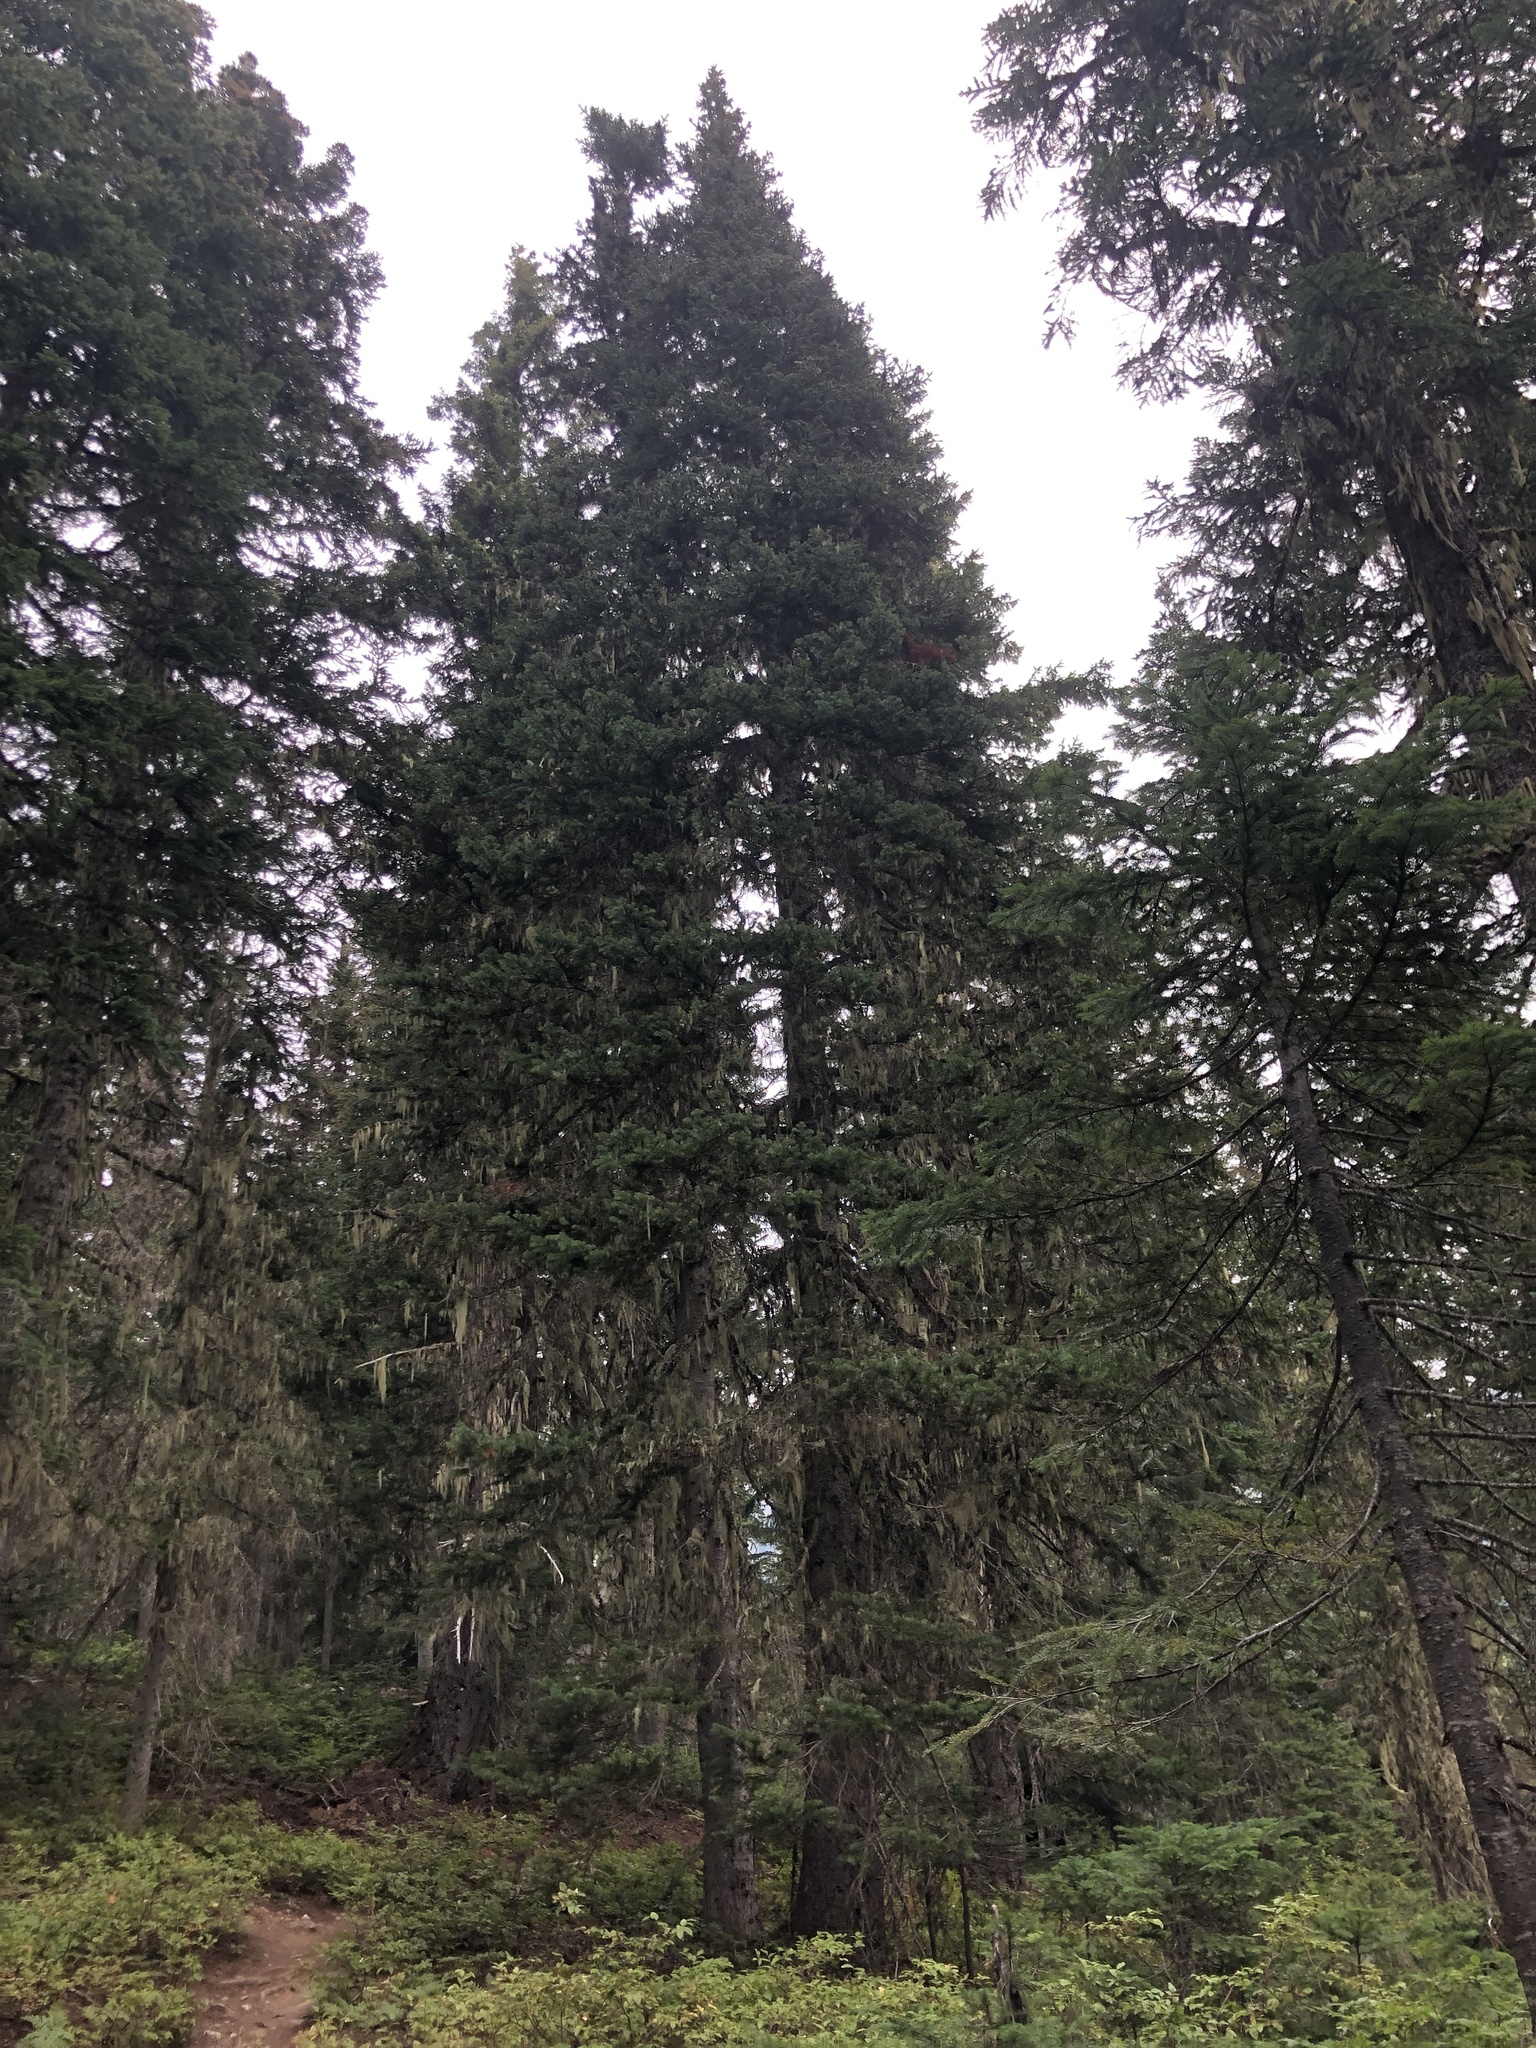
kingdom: Plantae
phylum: Tracheophyta
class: Pinopsida
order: Pinales
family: Pinaceae
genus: Abies
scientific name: Abies lasiocarpa
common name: Subalpine fir
